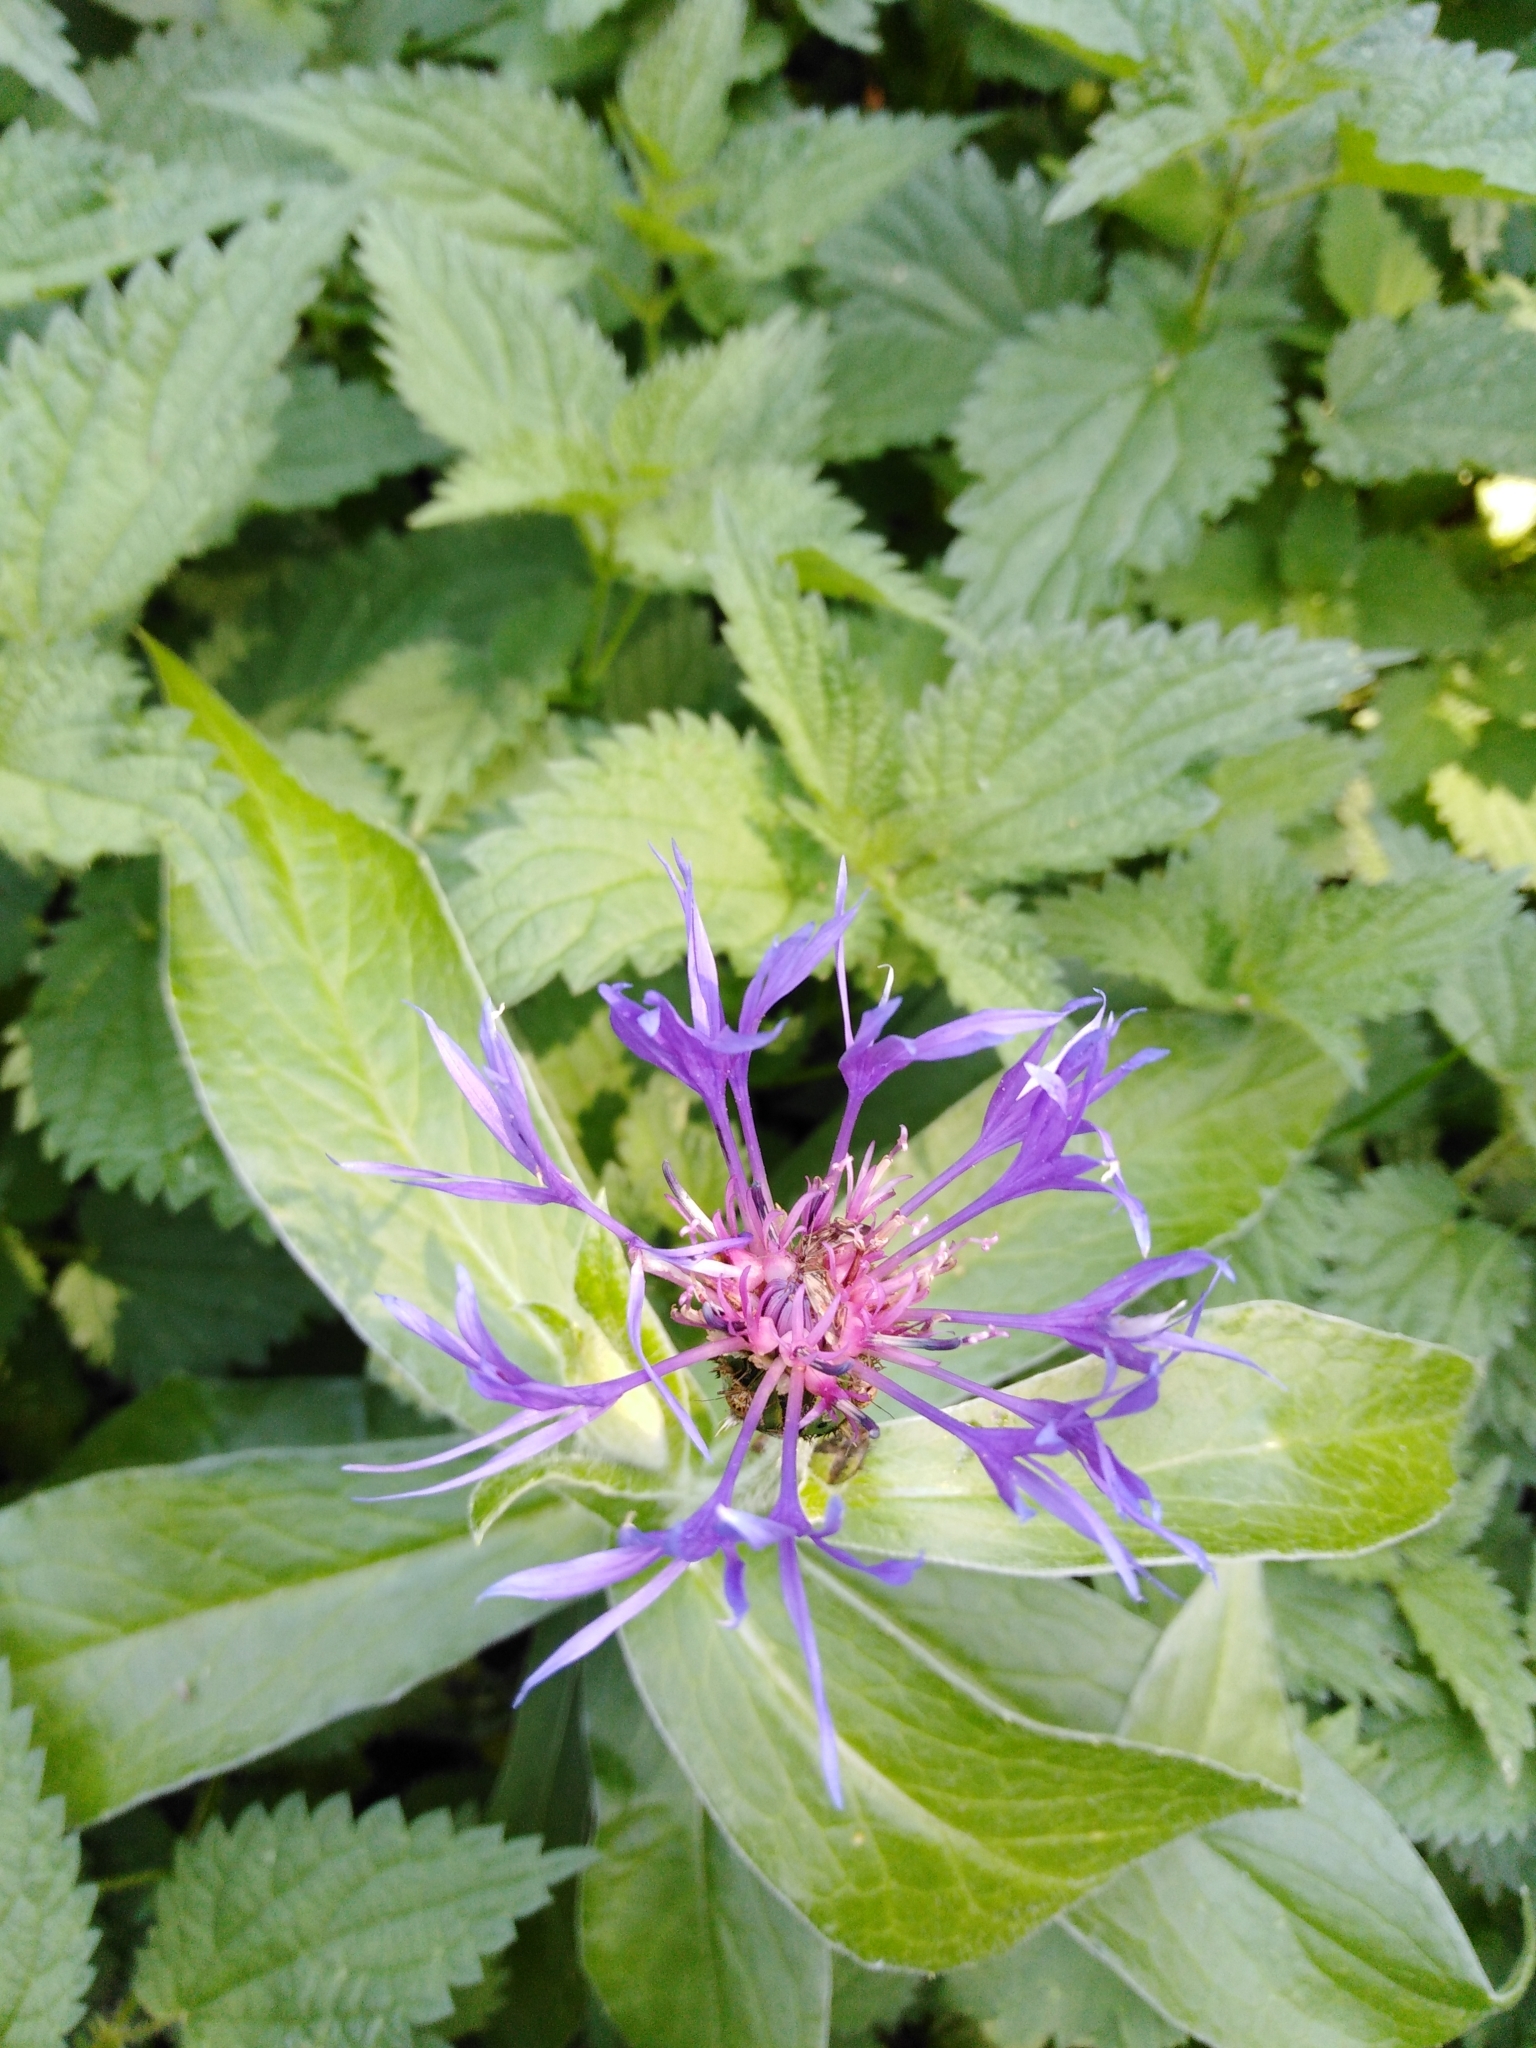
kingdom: Plantae
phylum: Tracheophyta
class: Magnoliopsida
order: Asterales
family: Asteraceae
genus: Centaurea
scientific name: Centaurea montana
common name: Perennial cornflower
